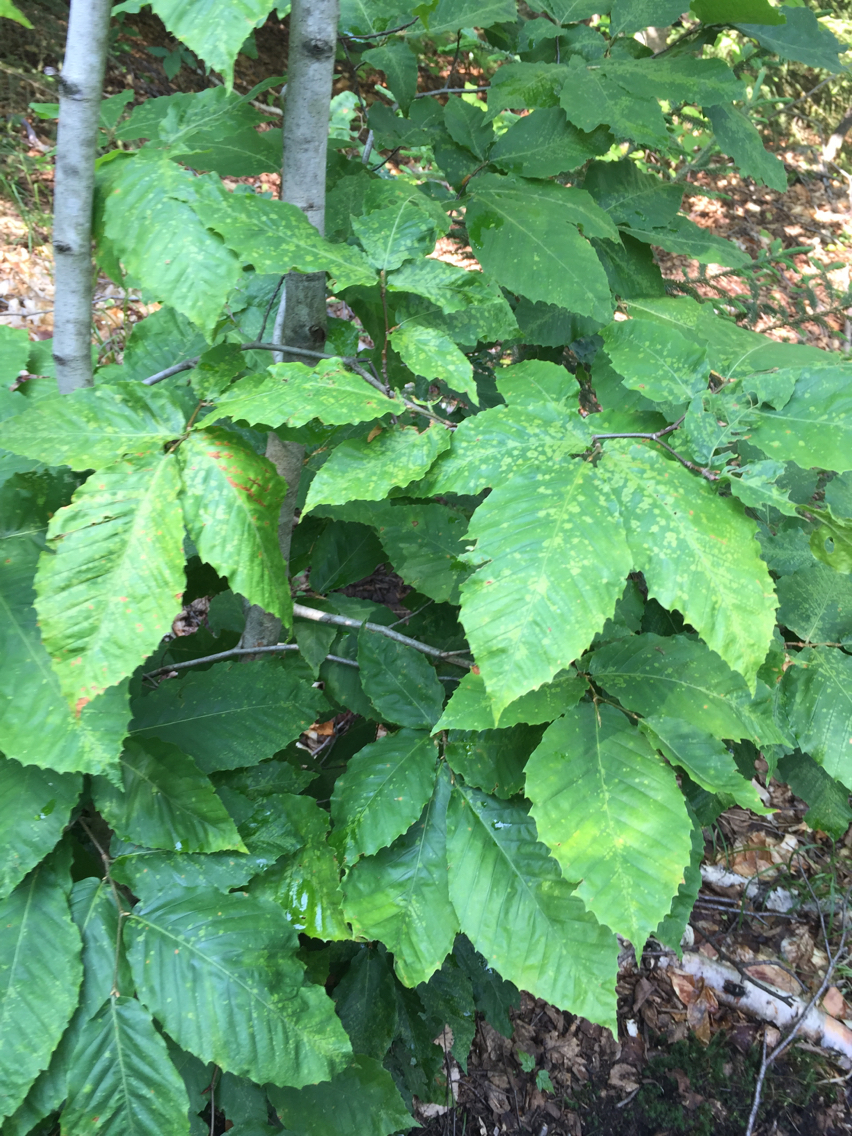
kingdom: Plantae
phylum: Tracheophyta
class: Magnoliopsida
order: Fagales
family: Fagaceae
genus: Fagus
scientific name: Fagus grandifolia
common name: American beech
